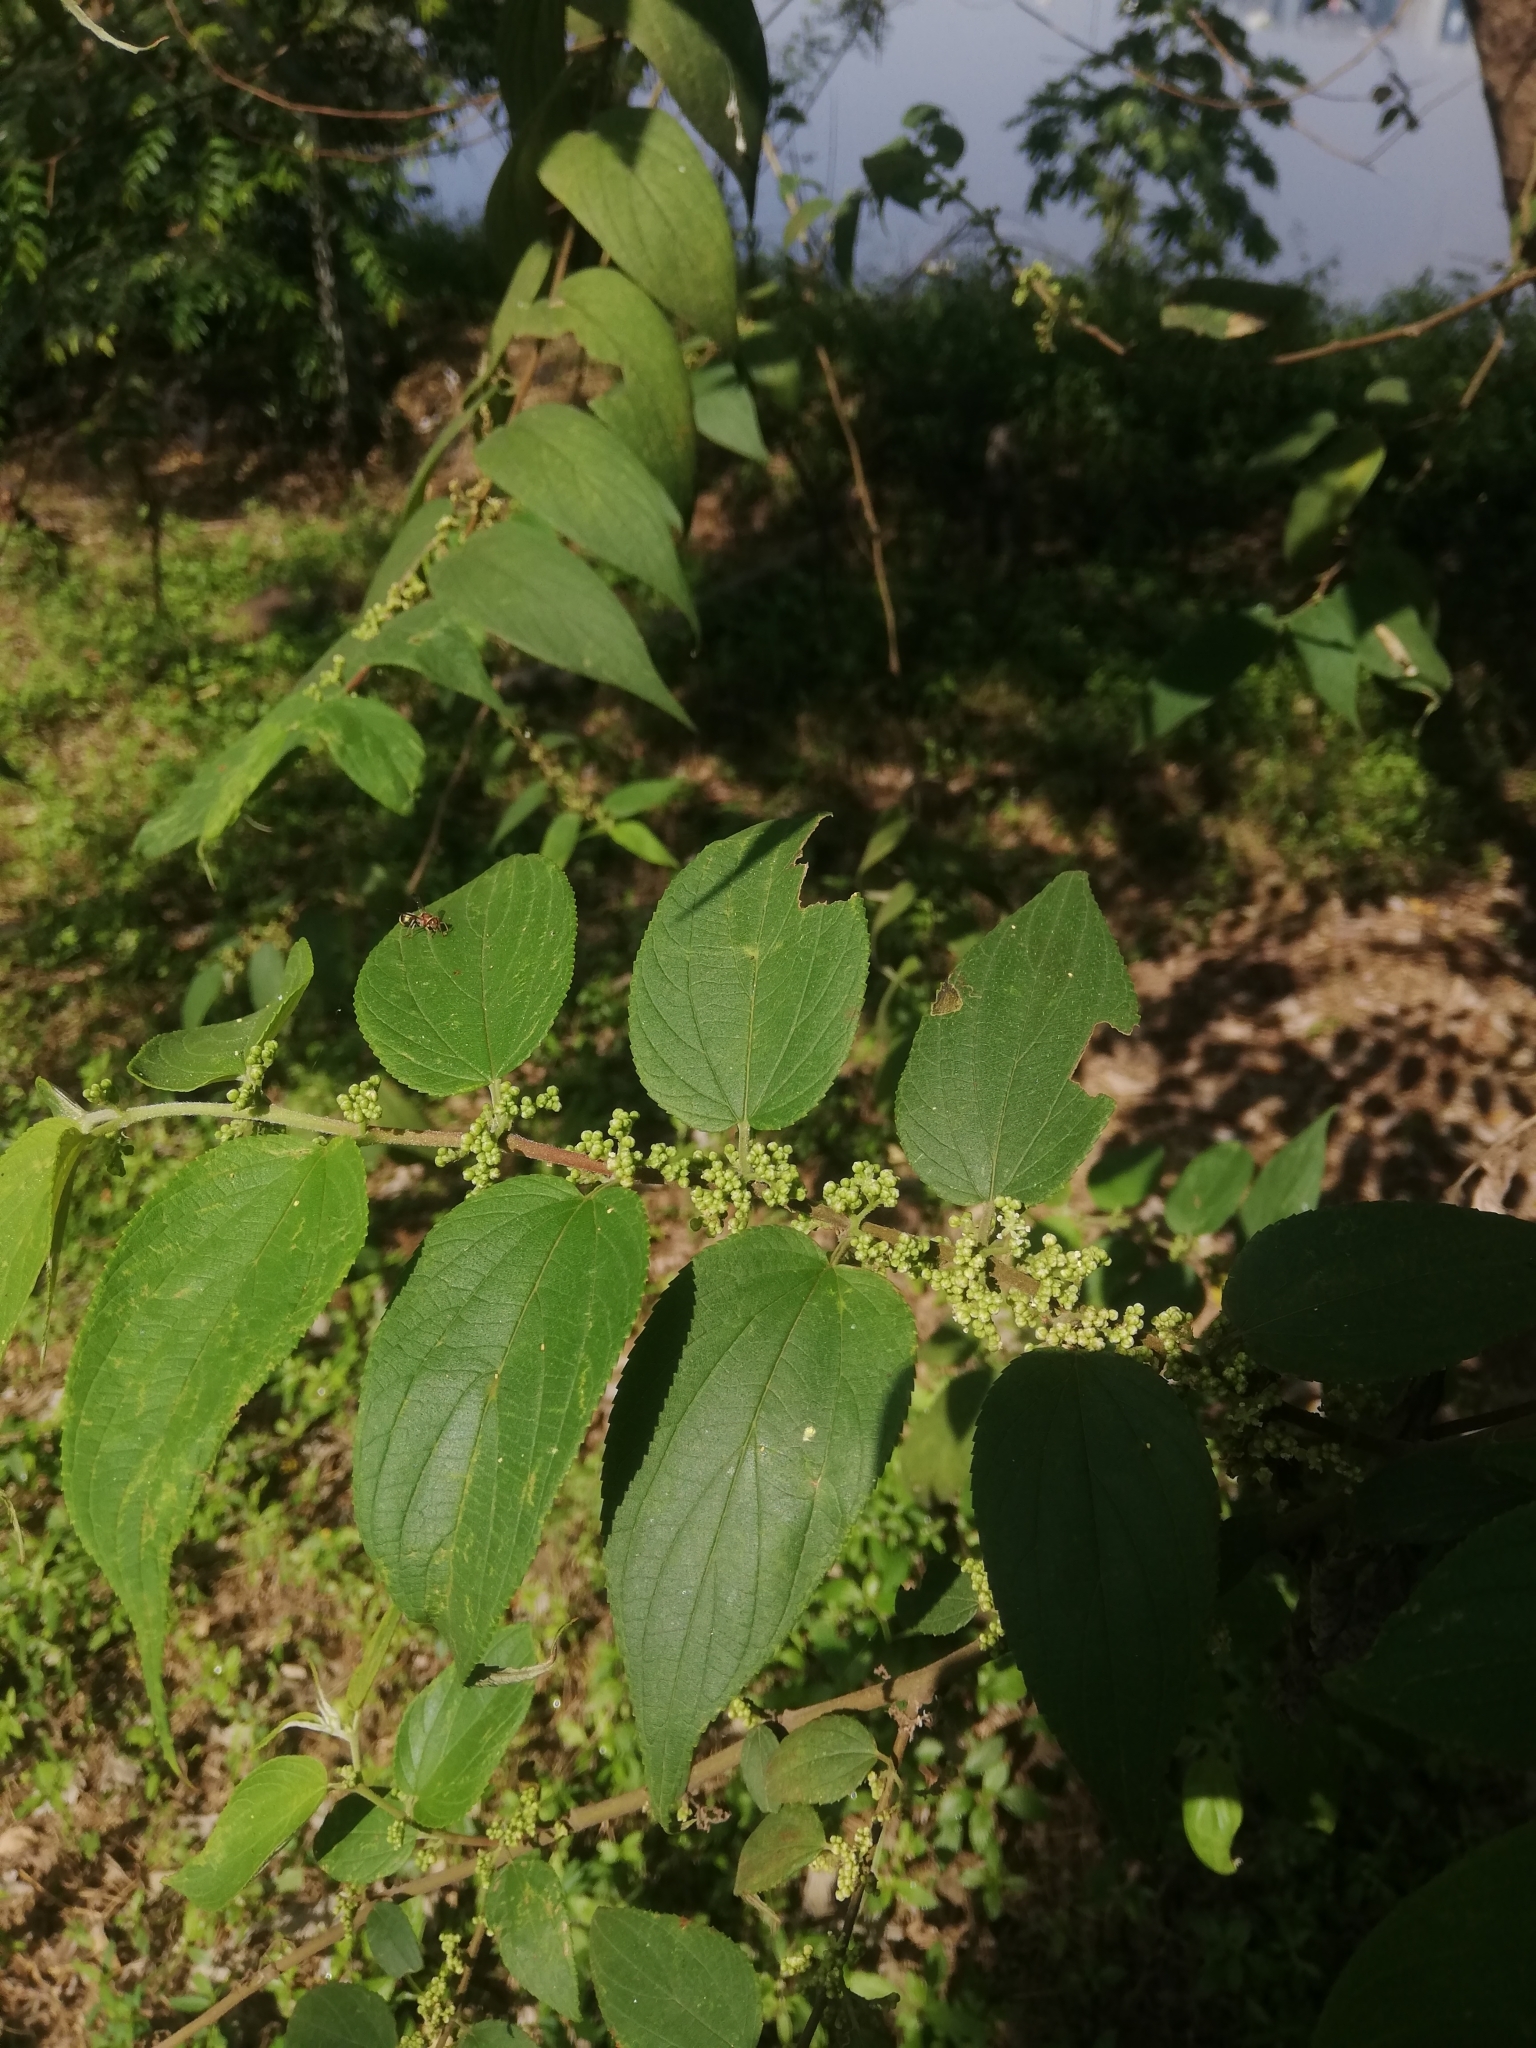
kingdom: Plantae
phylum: Tracheophyta
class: Magnoliopsida
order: Rosales
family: Cannabaceae
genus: Trema
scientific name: Trema orientale
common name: Indian charcoal tree
